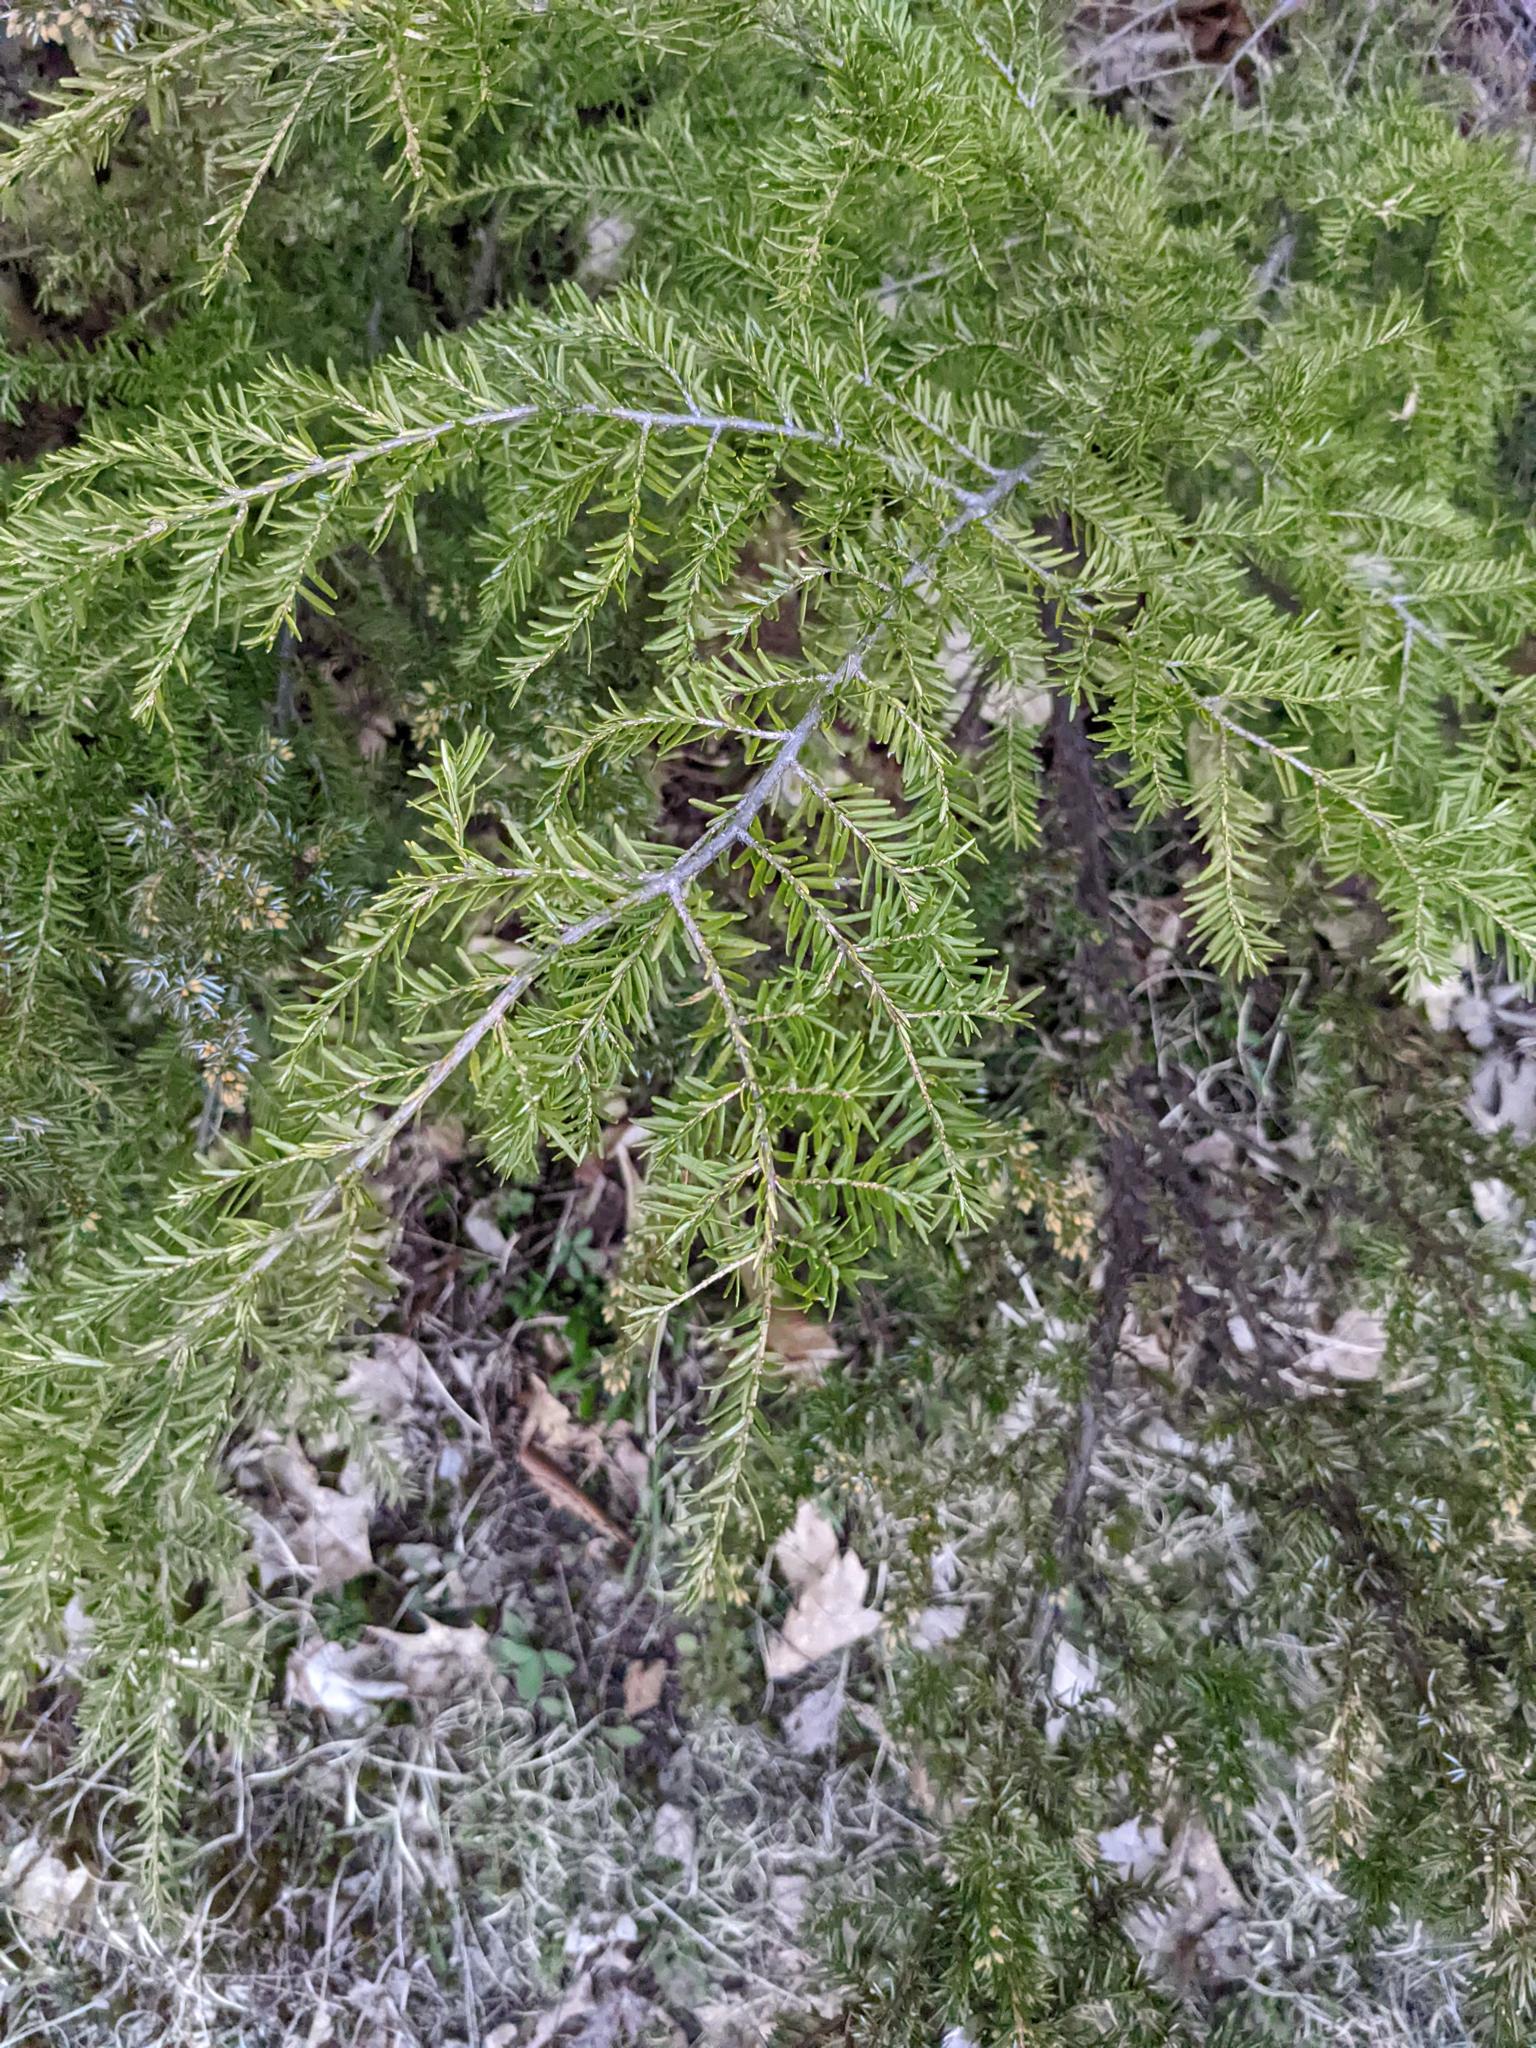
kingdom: Plantae
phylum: Tracheophyta
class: Pinopsida
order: Pinales
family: Pinaceae
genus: Tsuga
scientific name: Tsuga canadensis
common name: Eastern hemlock
